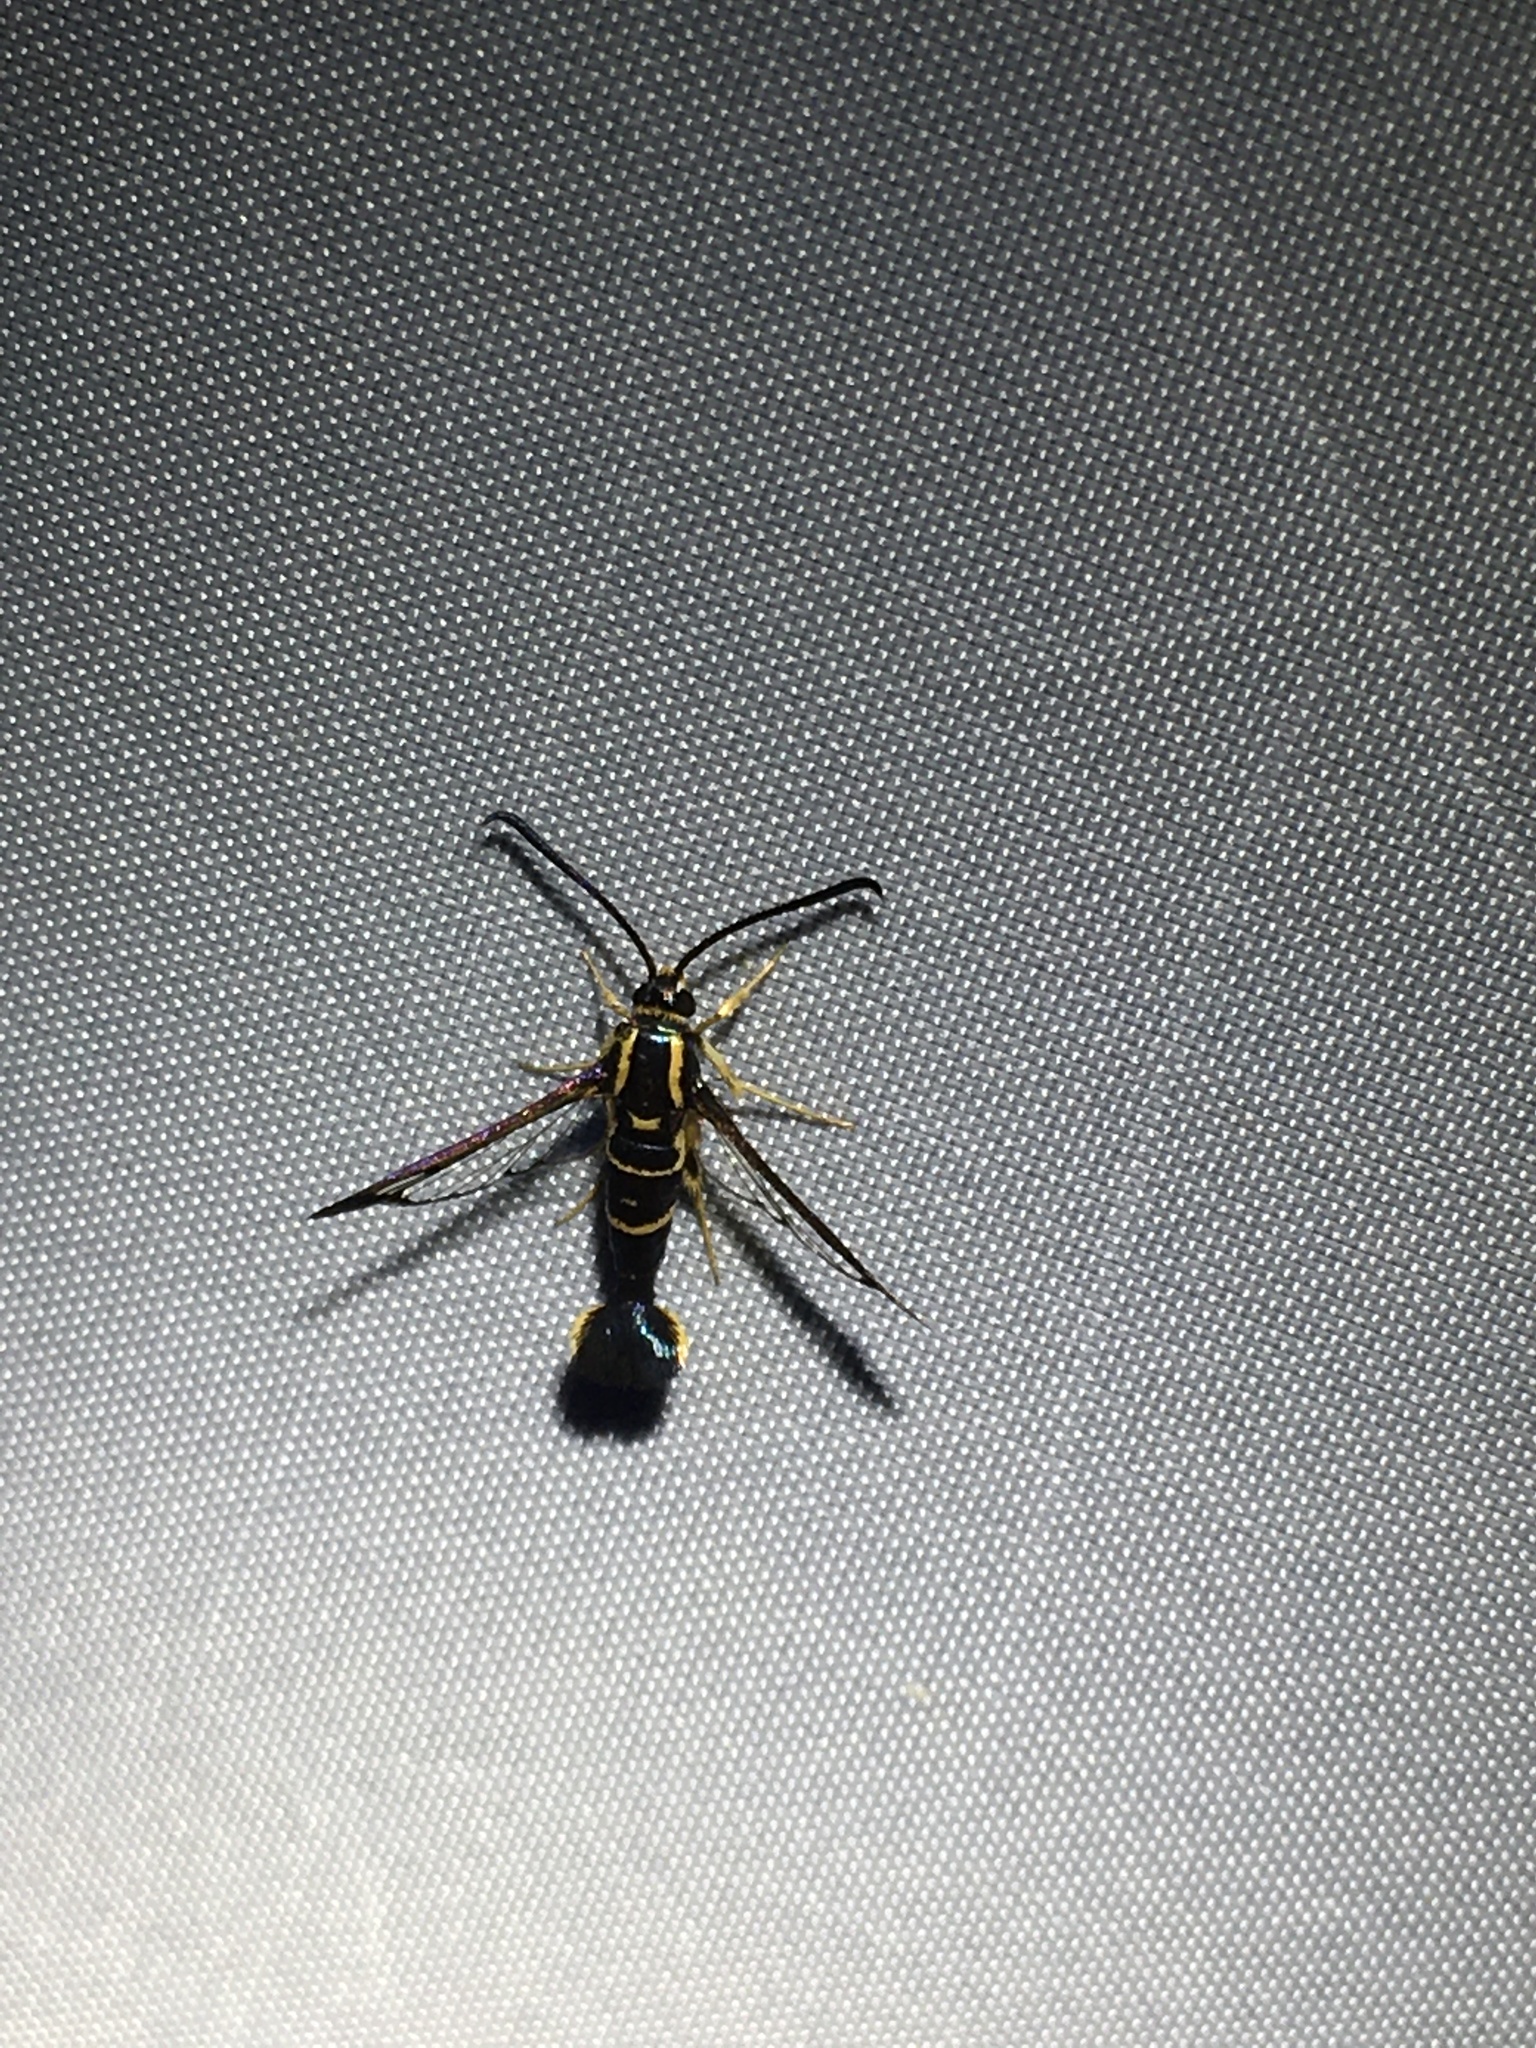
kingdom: Animalia
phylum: Arthropoda
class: Insecta
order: Lepidoptera
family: Sesiidae
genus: Synanthedon
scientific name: Synanthedon scitula
